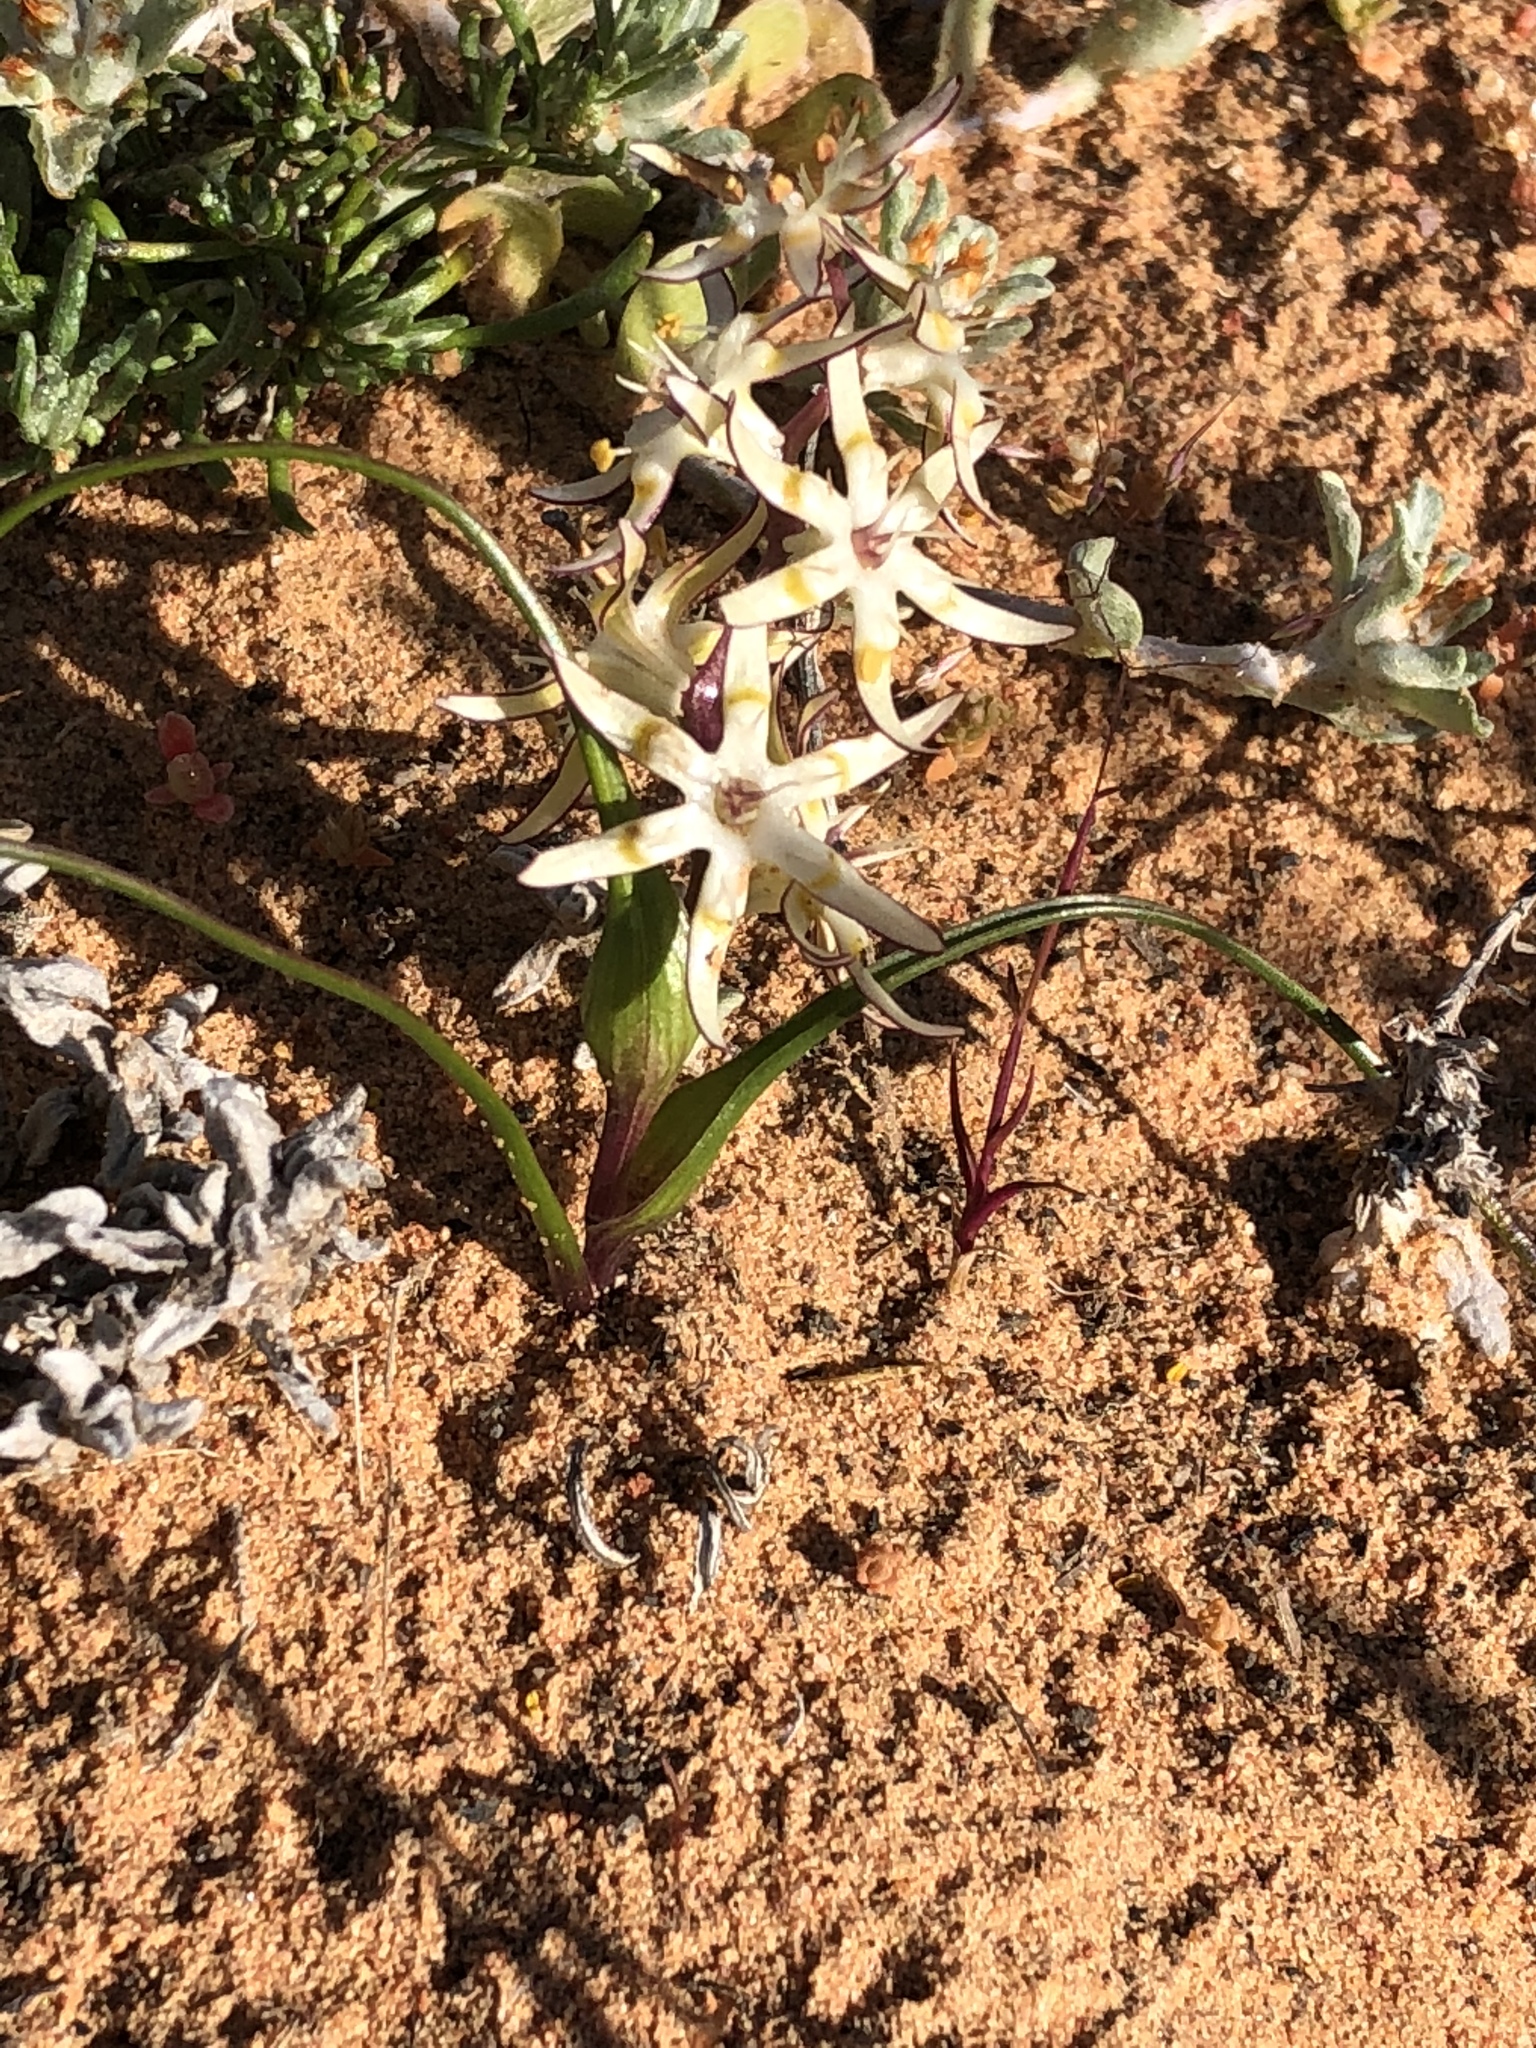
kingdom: Plantae
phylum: Tracheophyta
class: Liliopsida
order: Liliales
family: Colchicaceae
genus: Wurmbea
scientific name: Wurmbea variabilis
